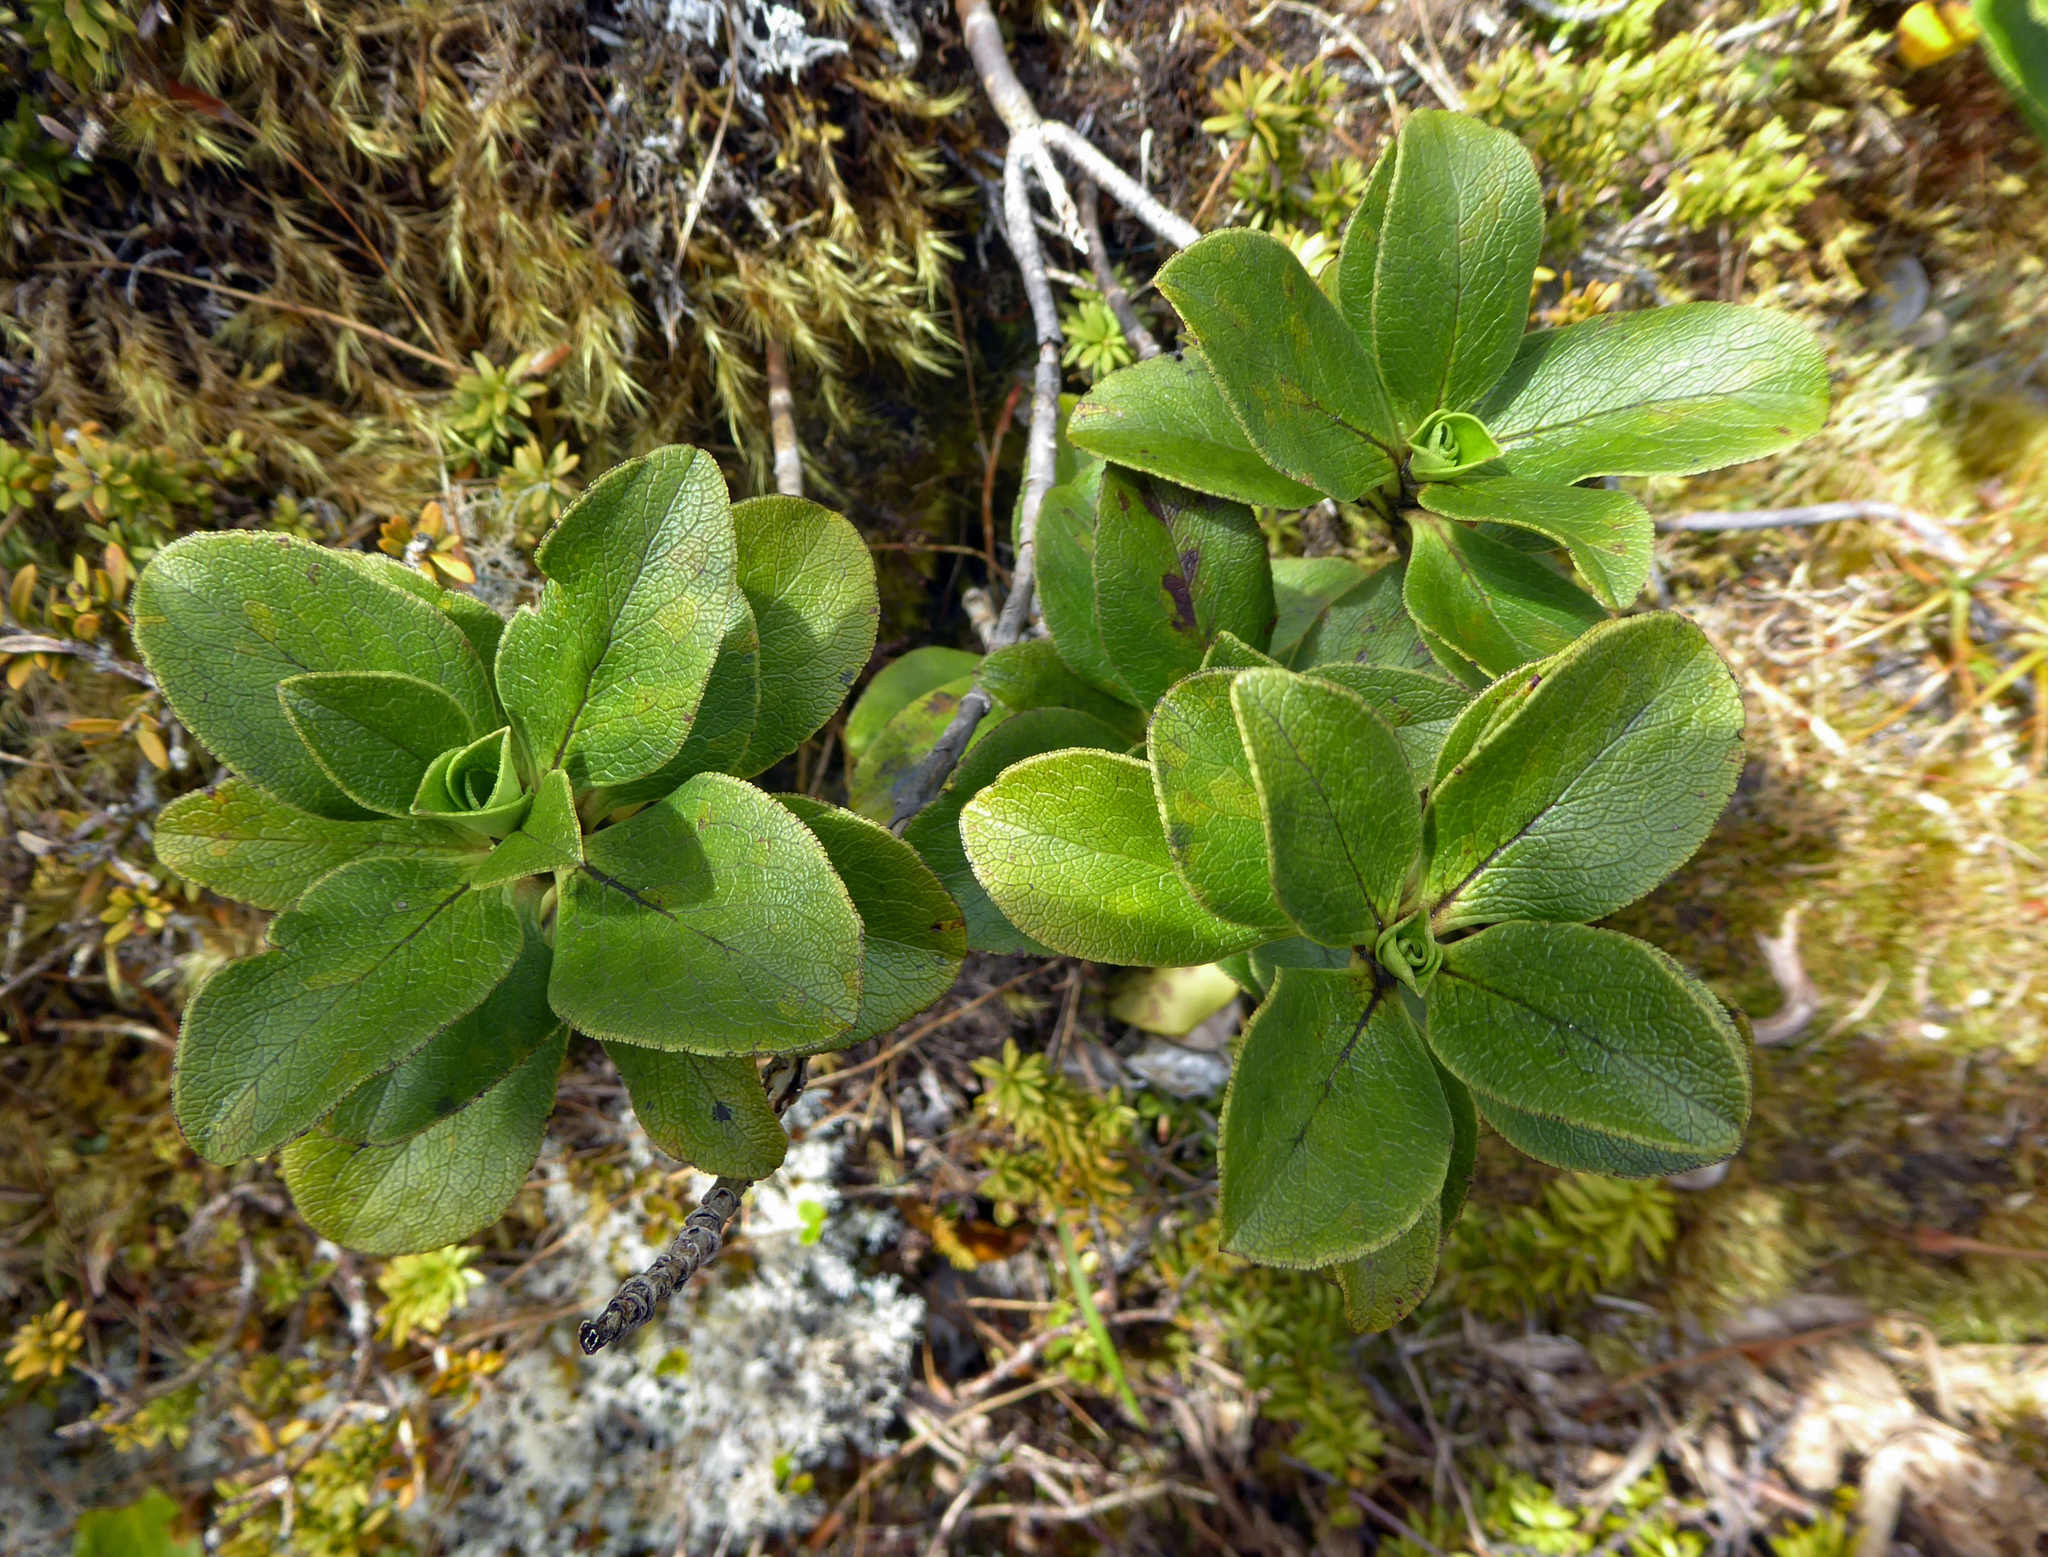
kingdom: Plantae
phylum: Tracheophyta
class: Magnoliopsida
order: Gentianales
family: Rubiaceae
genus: Coprosma
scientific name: Coprosma serrulata
